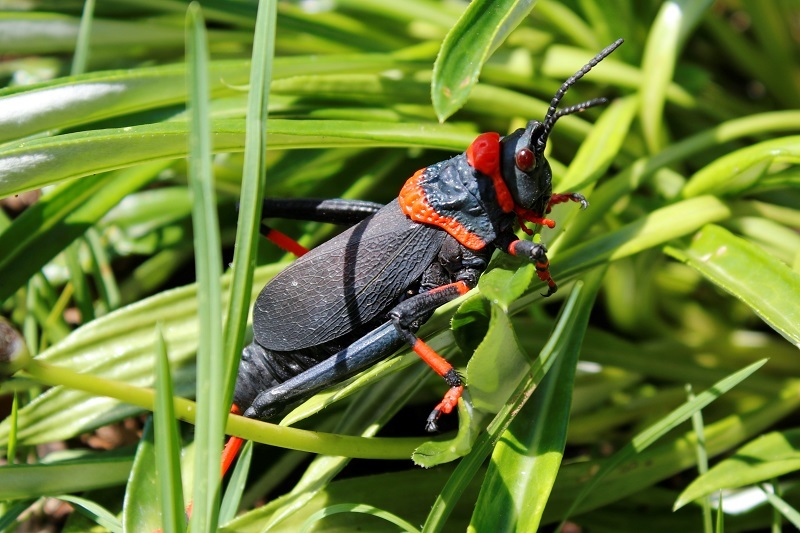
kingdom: Animalia
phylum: Arthropoda
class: Insecta
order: Orthoptera
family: Pyrgomorphidae
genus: Dictyophorus
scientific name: Dictyophorus spumans
